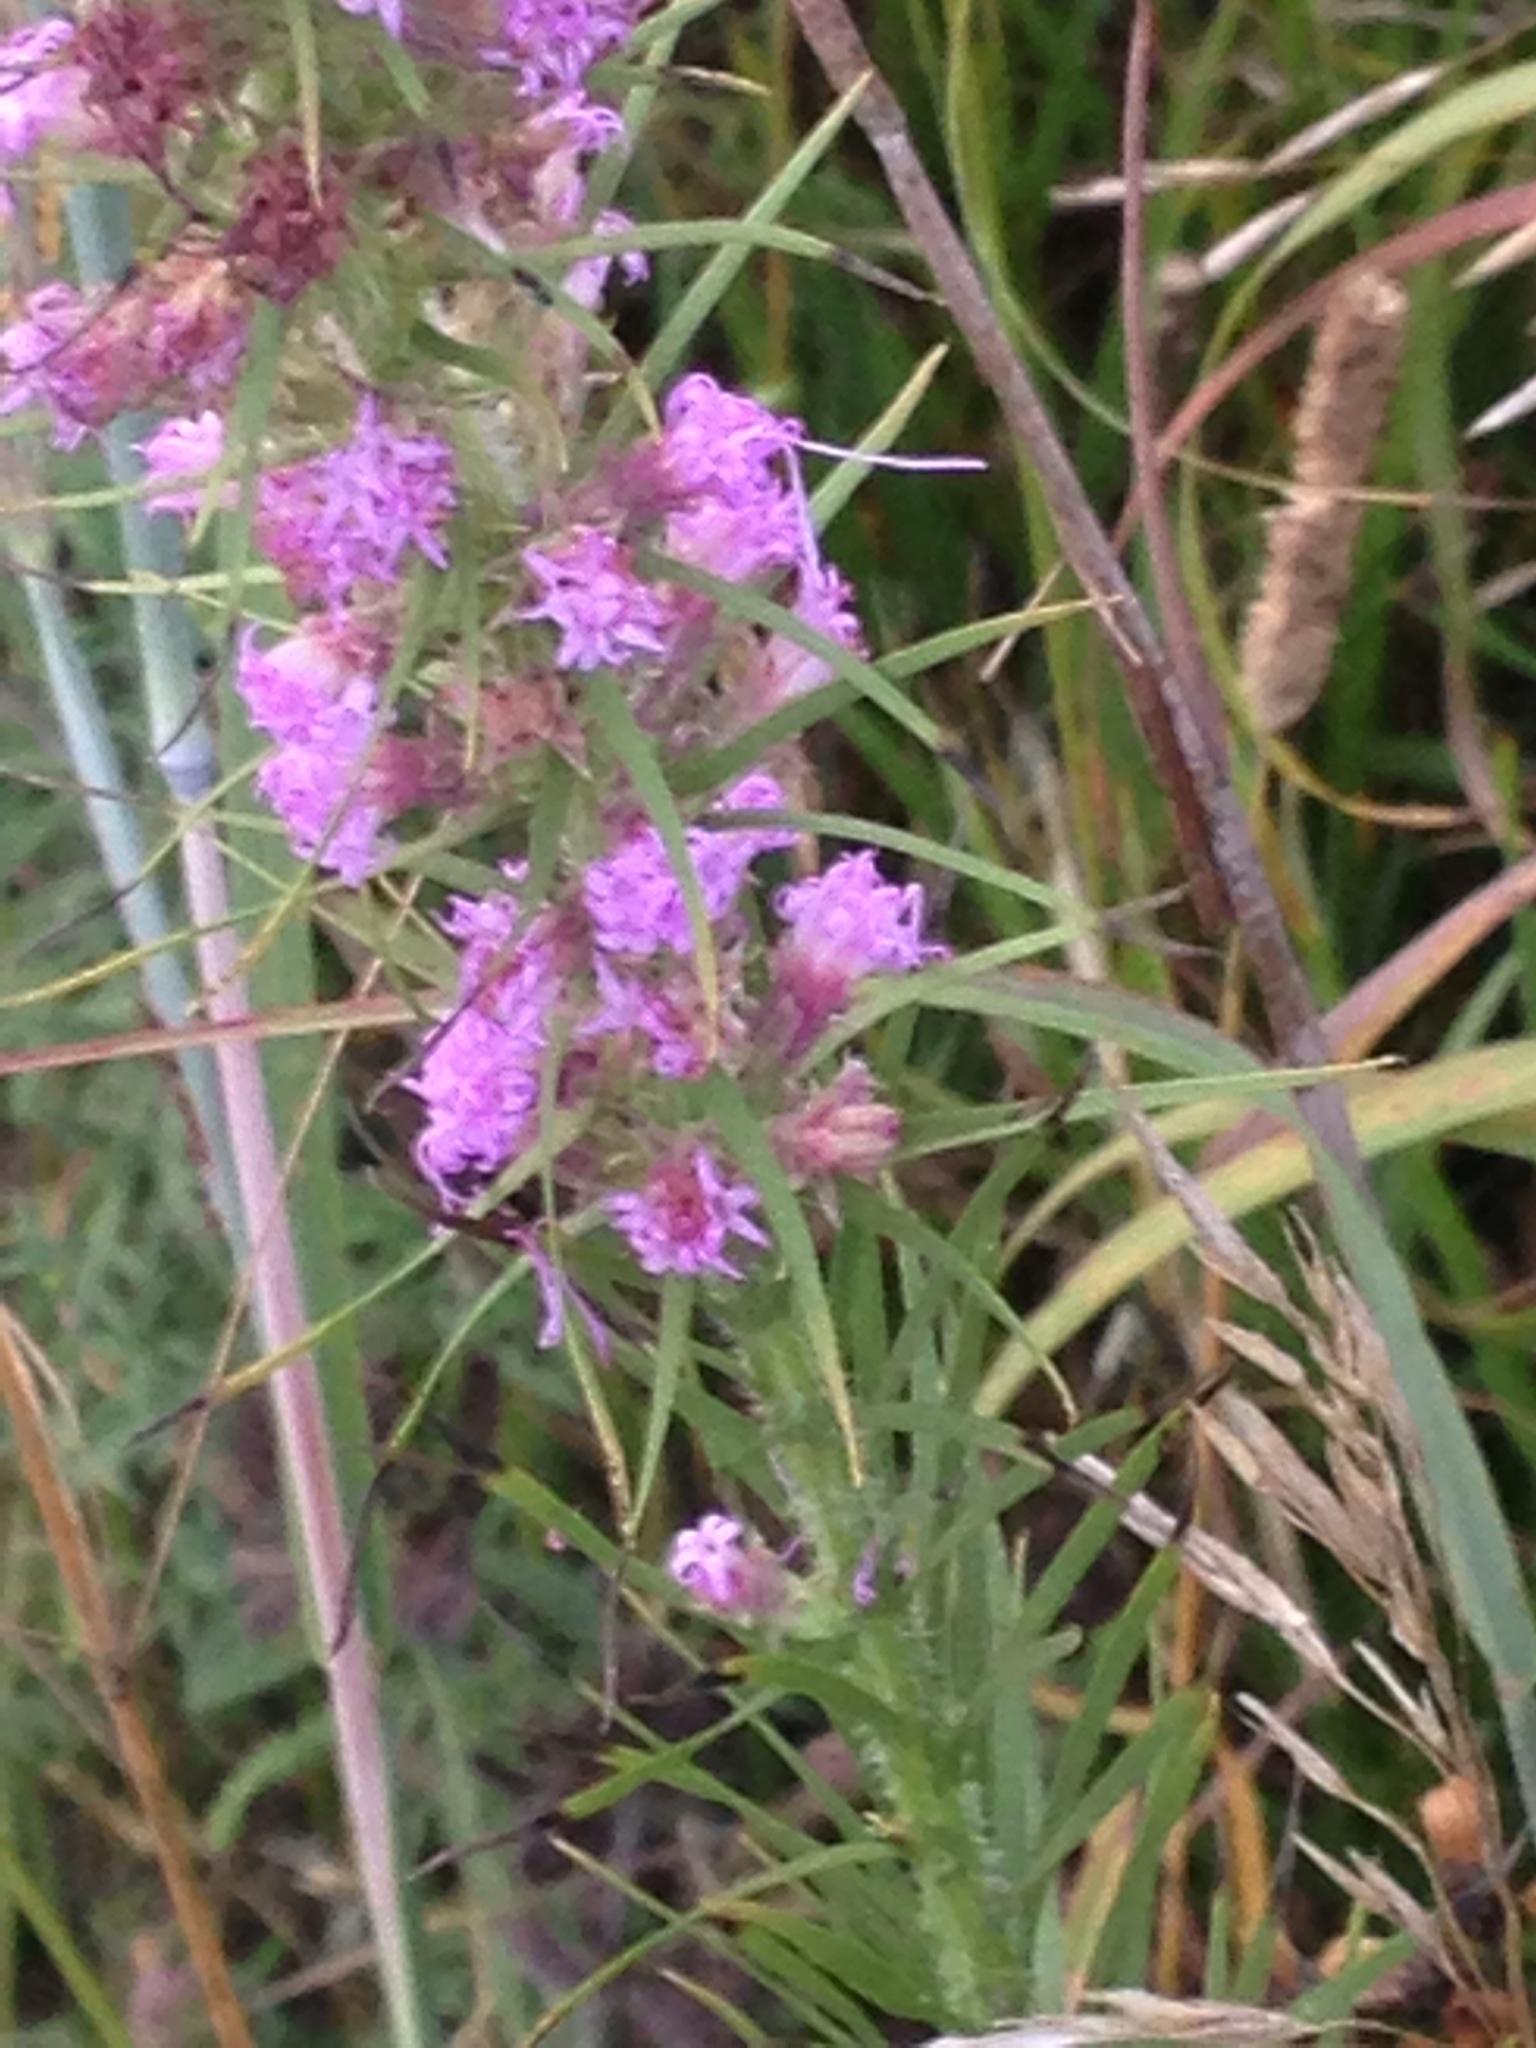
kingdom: Plantae
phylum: Tracheophyta
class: Magnoliopsida
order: Asterales
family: Asteraceae
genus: Liatris
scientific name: Liatris pycnostachya
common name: Cattail gayfeather
